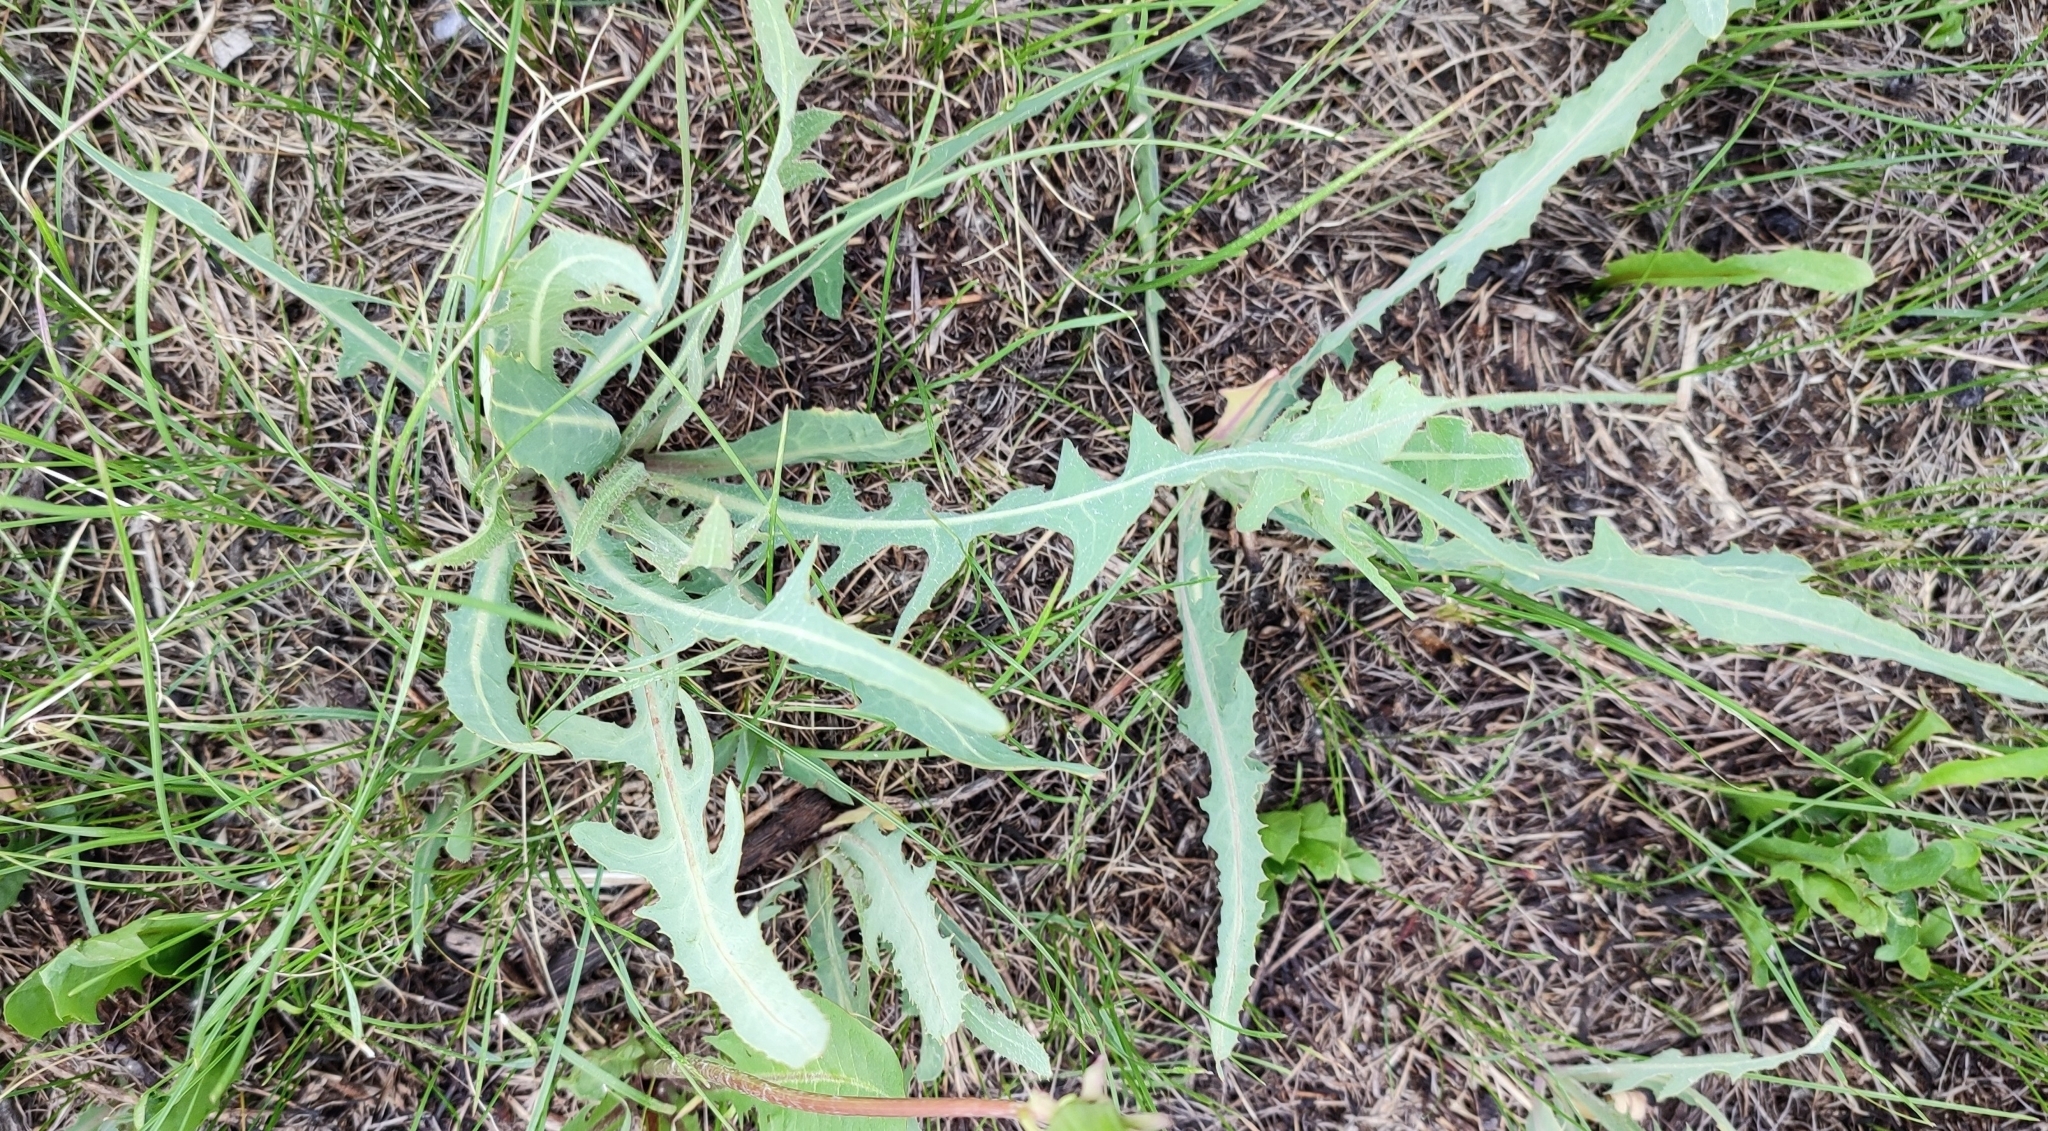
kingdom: Plantae
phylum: Tracheophyta
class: Magnoliopsida
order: Asterales
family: Asteraceae
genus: Lactuca
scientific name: Lactuca tatarica
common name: Blue lettuce
